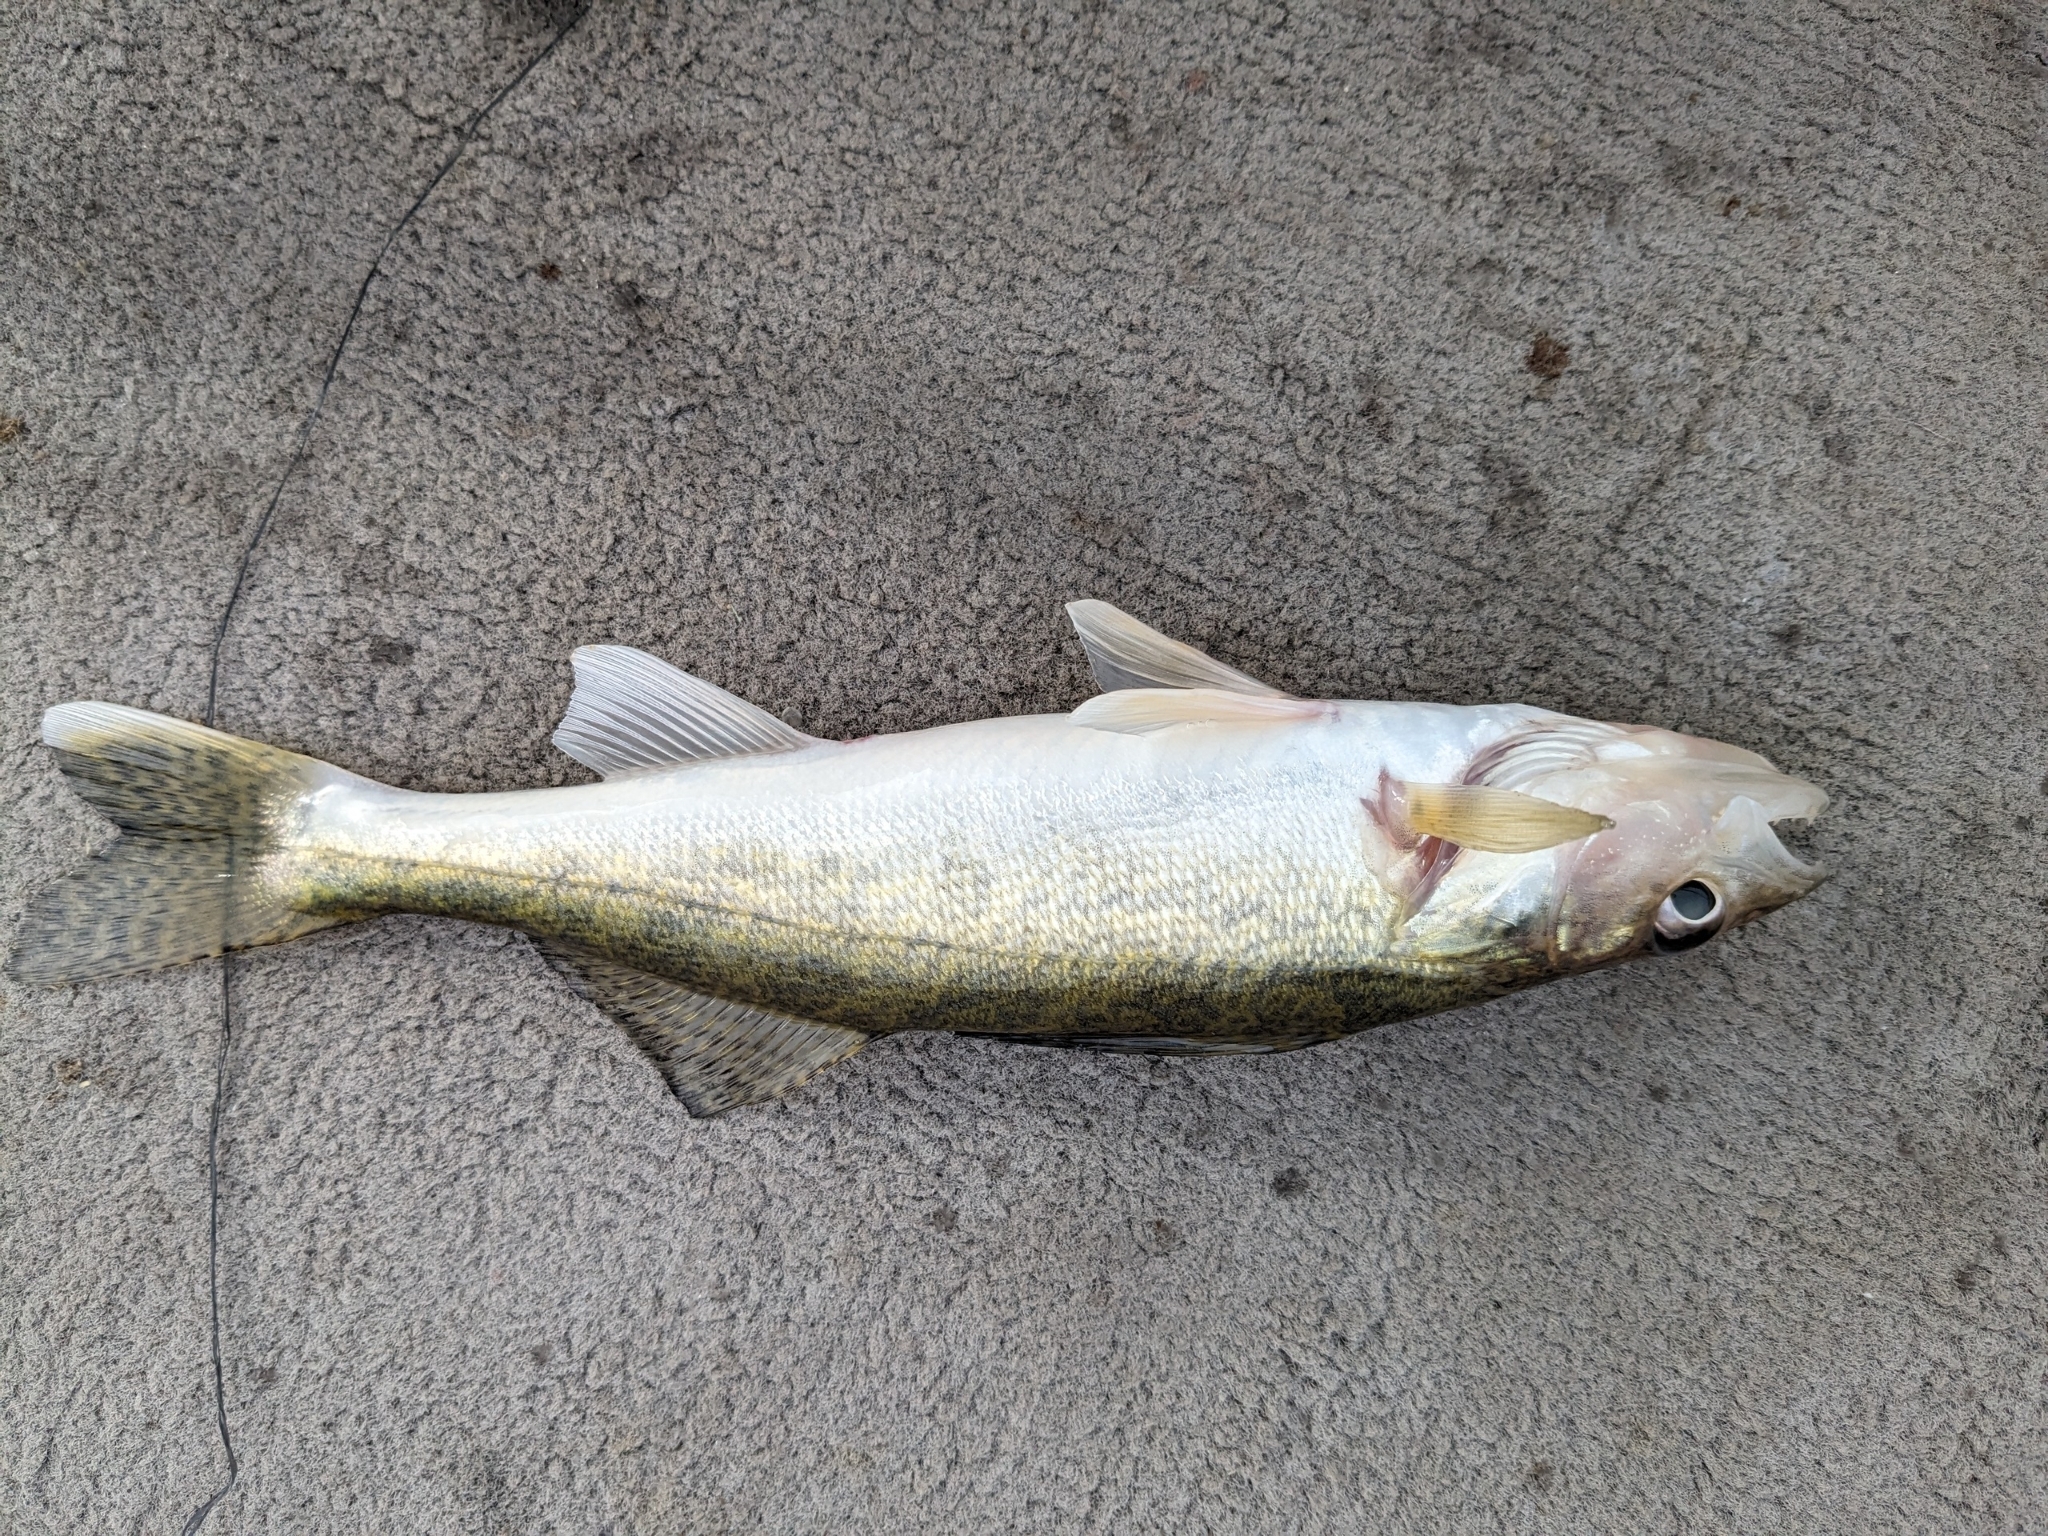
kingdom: Animalia
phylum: Chordata
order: Perciformes
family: Percidae
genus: Sander
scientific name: Sander vitreus
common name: Walleye
